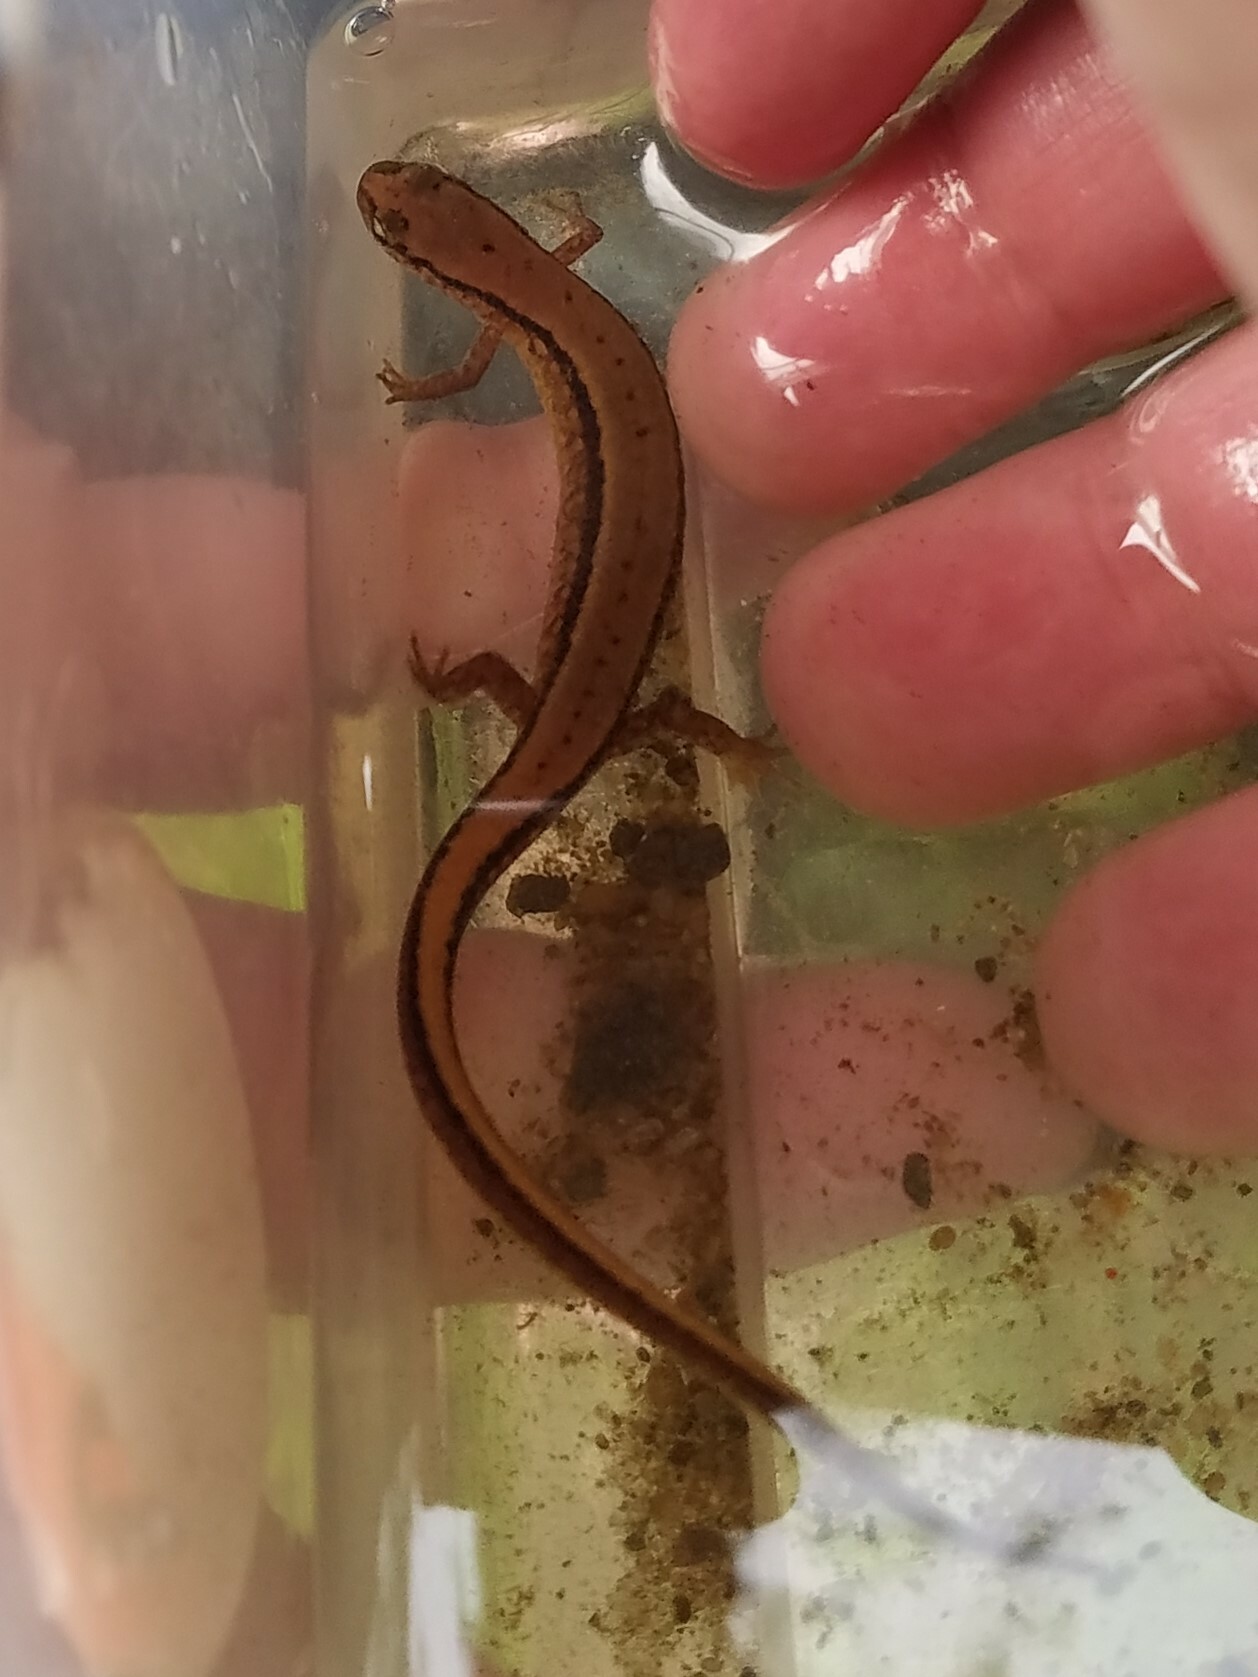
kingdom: Animalia
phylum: Chordata
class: Amphibia
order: Caudata
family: Plethodontidae
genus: Eurycea
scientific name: Eurycea cirrigera
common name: Southern two-lined salamander
